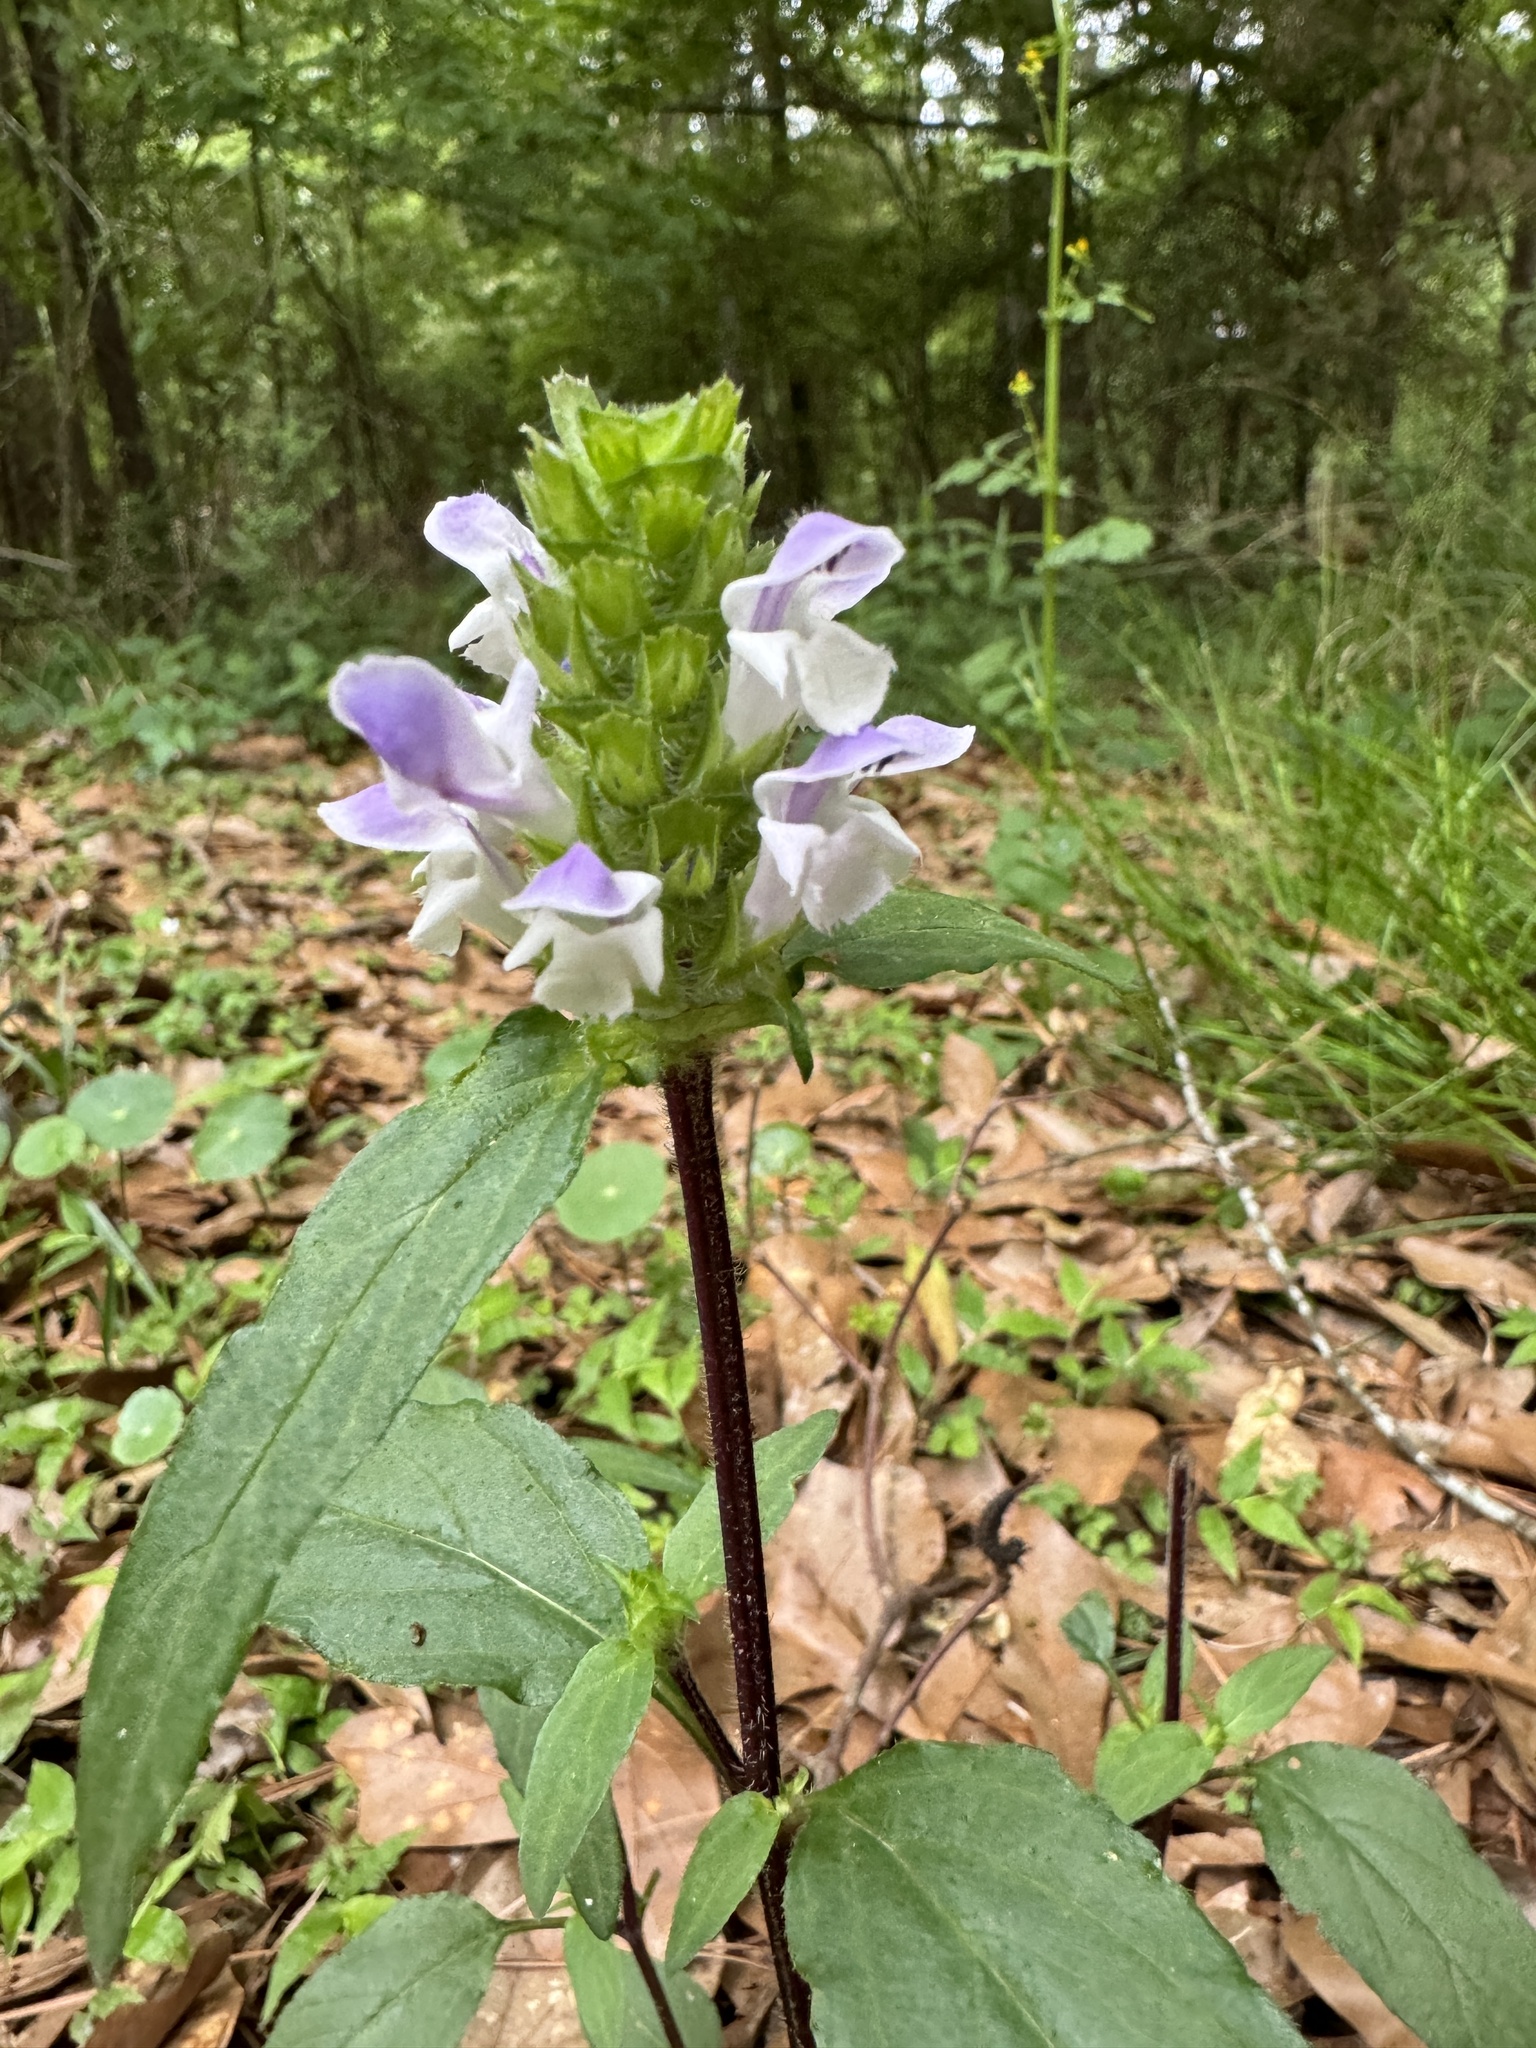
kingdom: Plantae
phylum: Tracheophyta
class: Magnoliopsida
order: Lamiales
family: Lamiaceae
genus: Prunella
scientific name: Prunella vulgaris
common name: Heal-all
